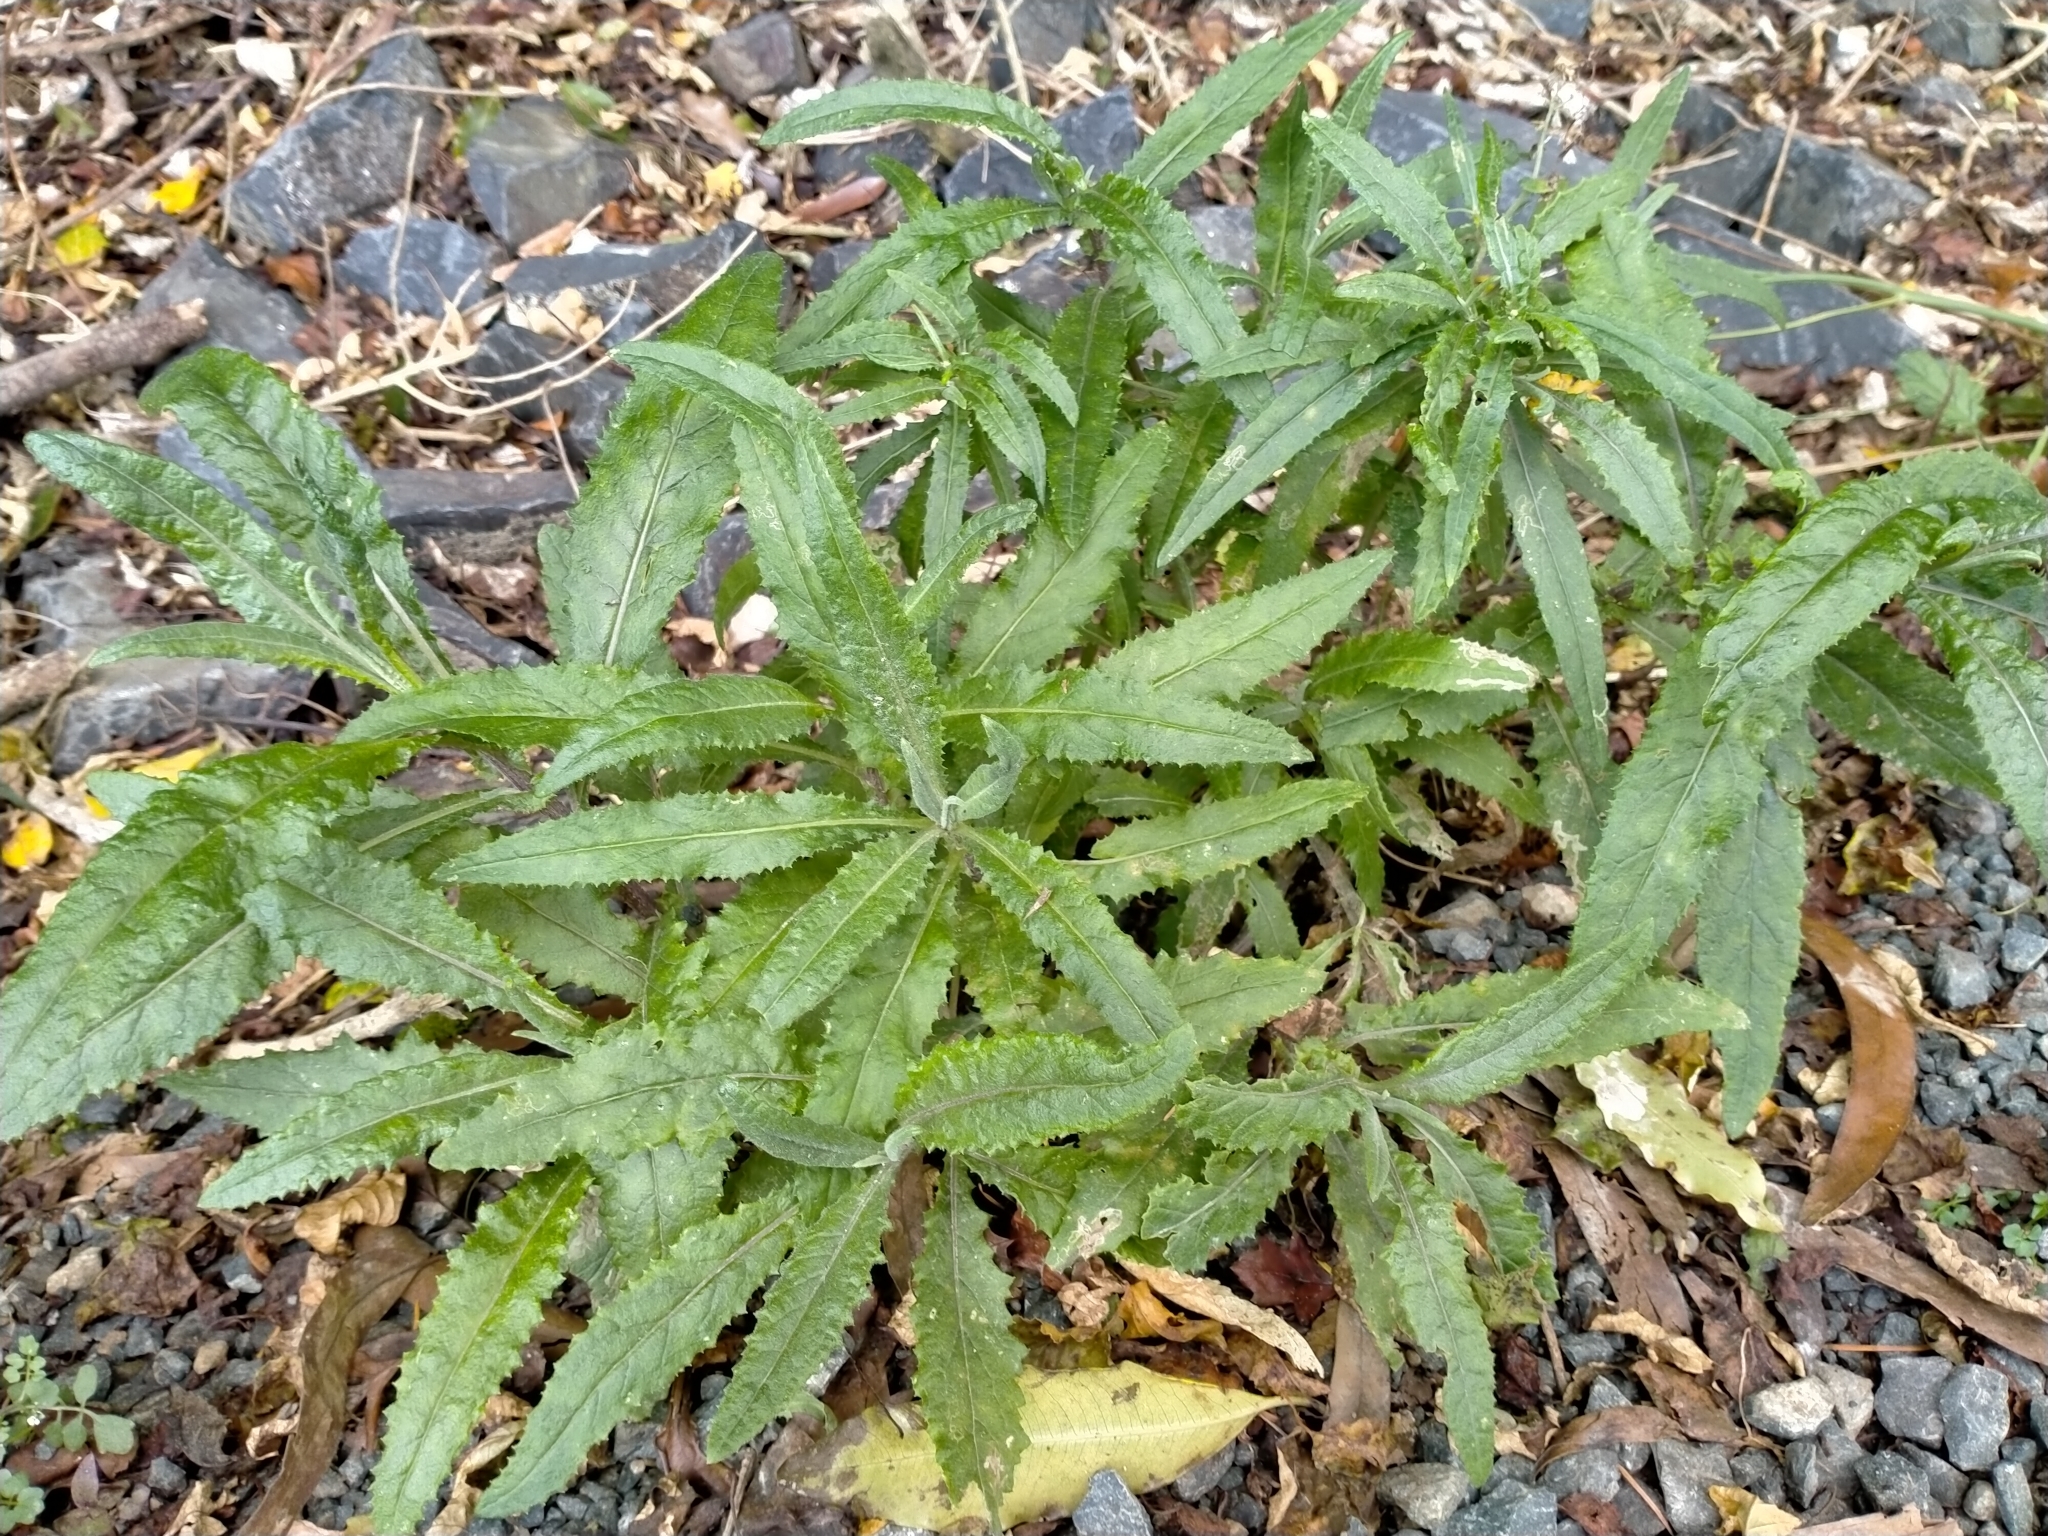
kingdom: Plantae
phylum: Tracheophyta
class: Magnoliopsida
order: Asterales
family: Asteraceae
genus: Senecio
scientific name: Senecio minimus
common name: Toothed fireweed
